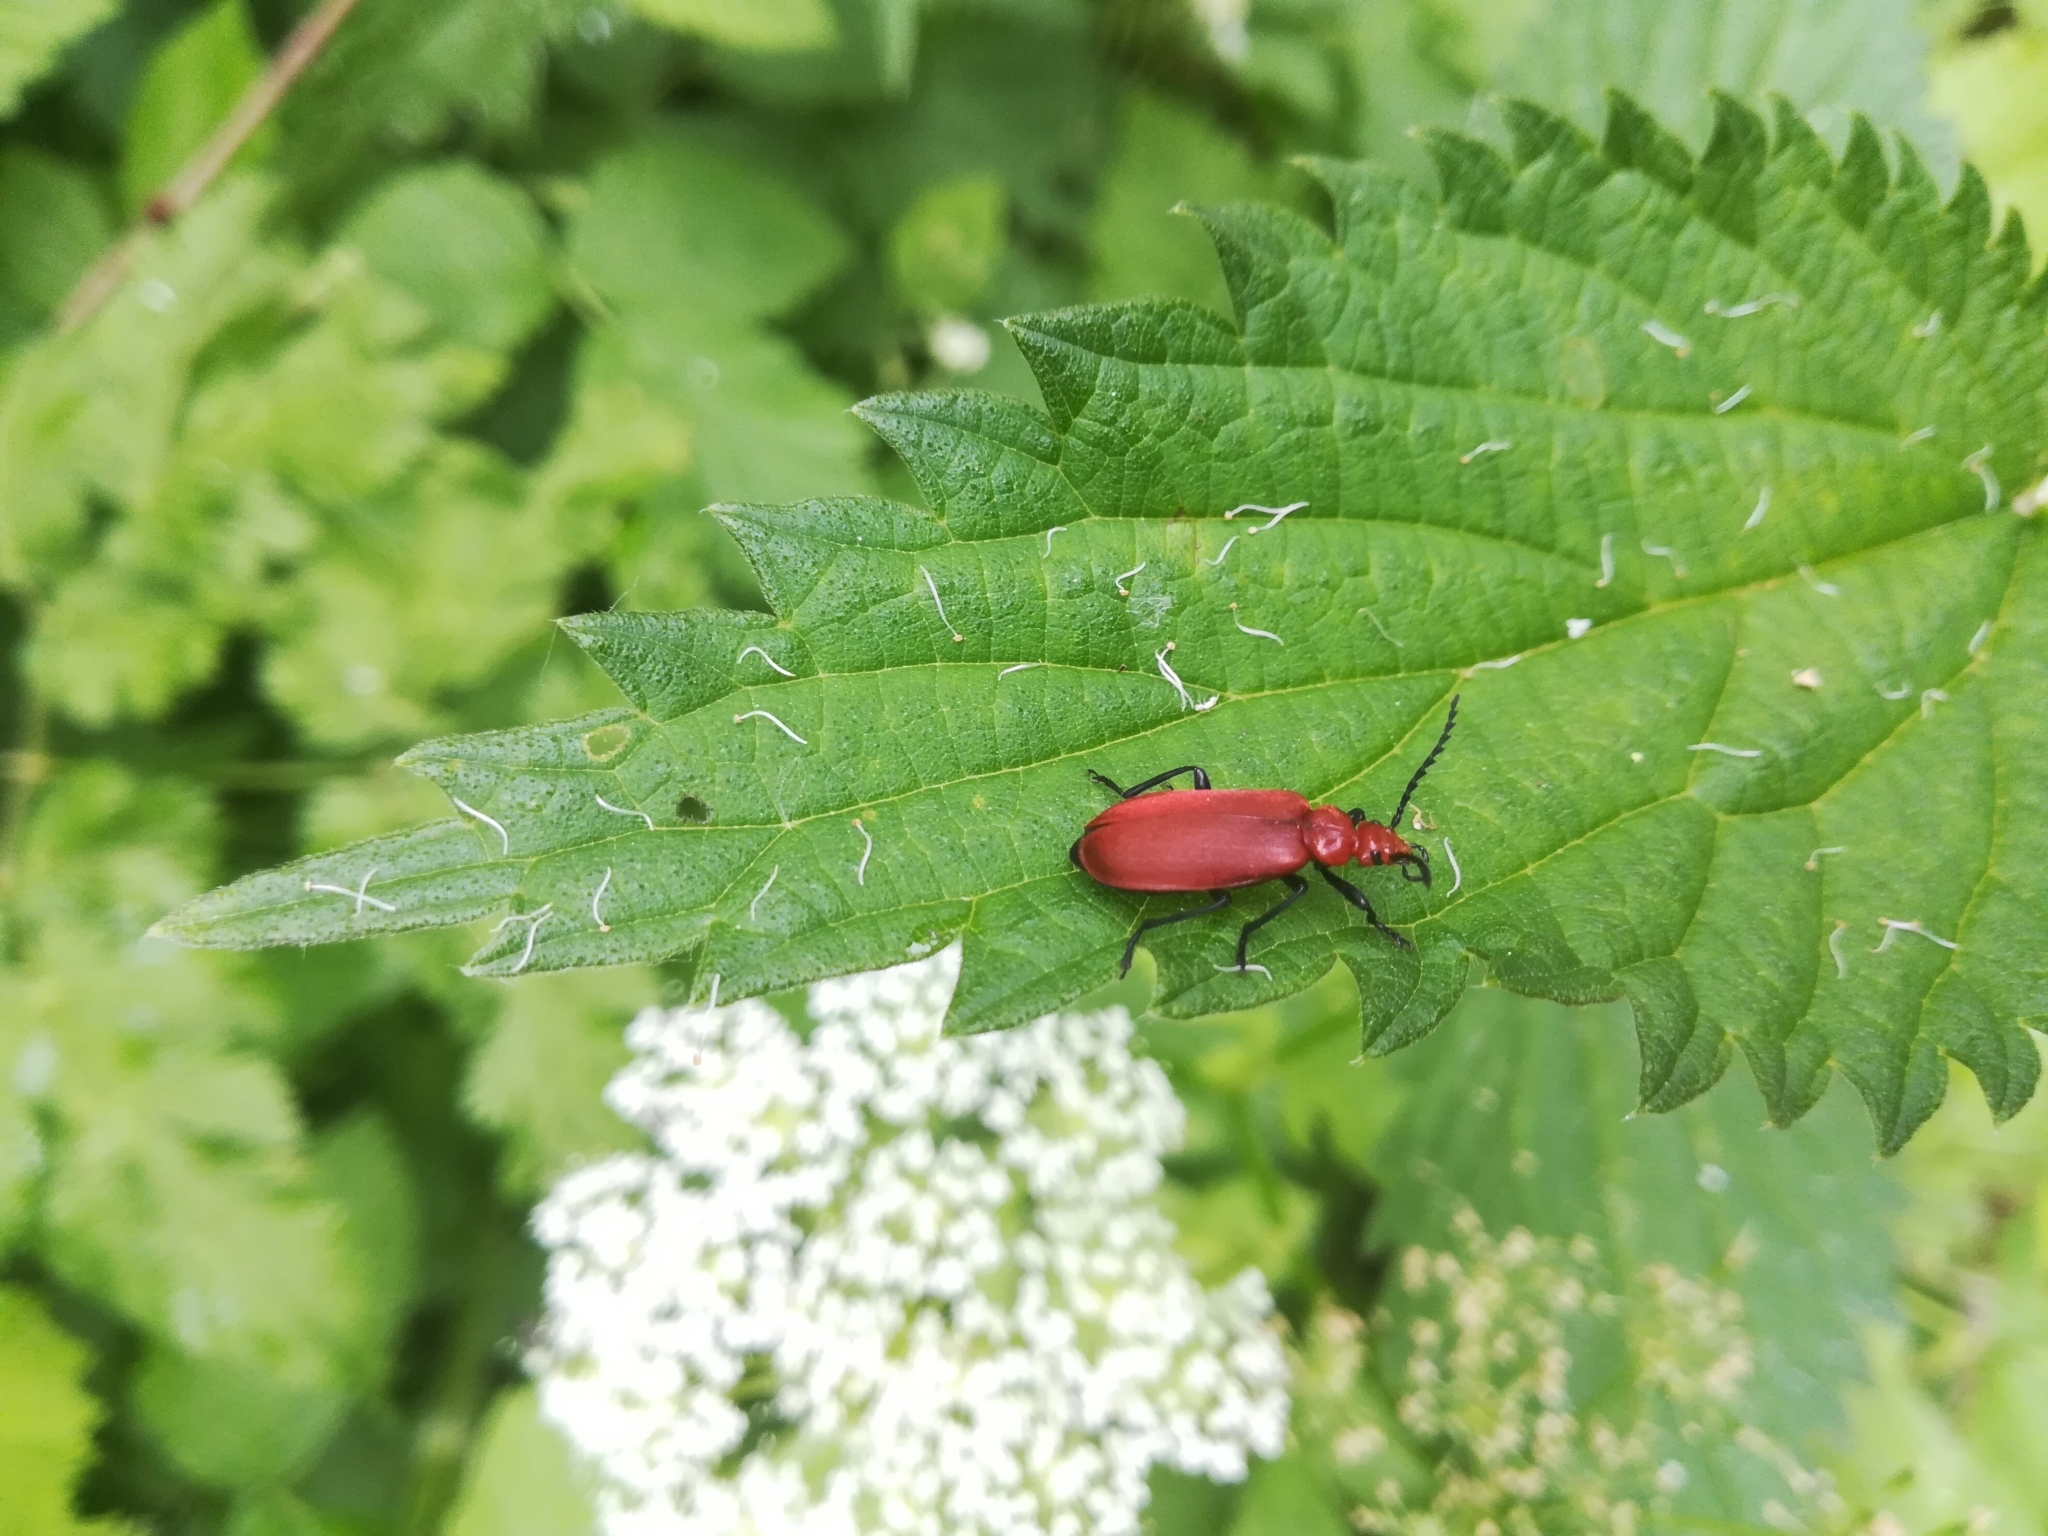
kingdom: Animalia
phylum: Arthropoda
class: Insecta
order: Coleoptera
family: Pyrochroidae
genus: Pyrochroa
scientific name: Pyrochroa serraticornis
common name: Red-headed cardinal beetle
